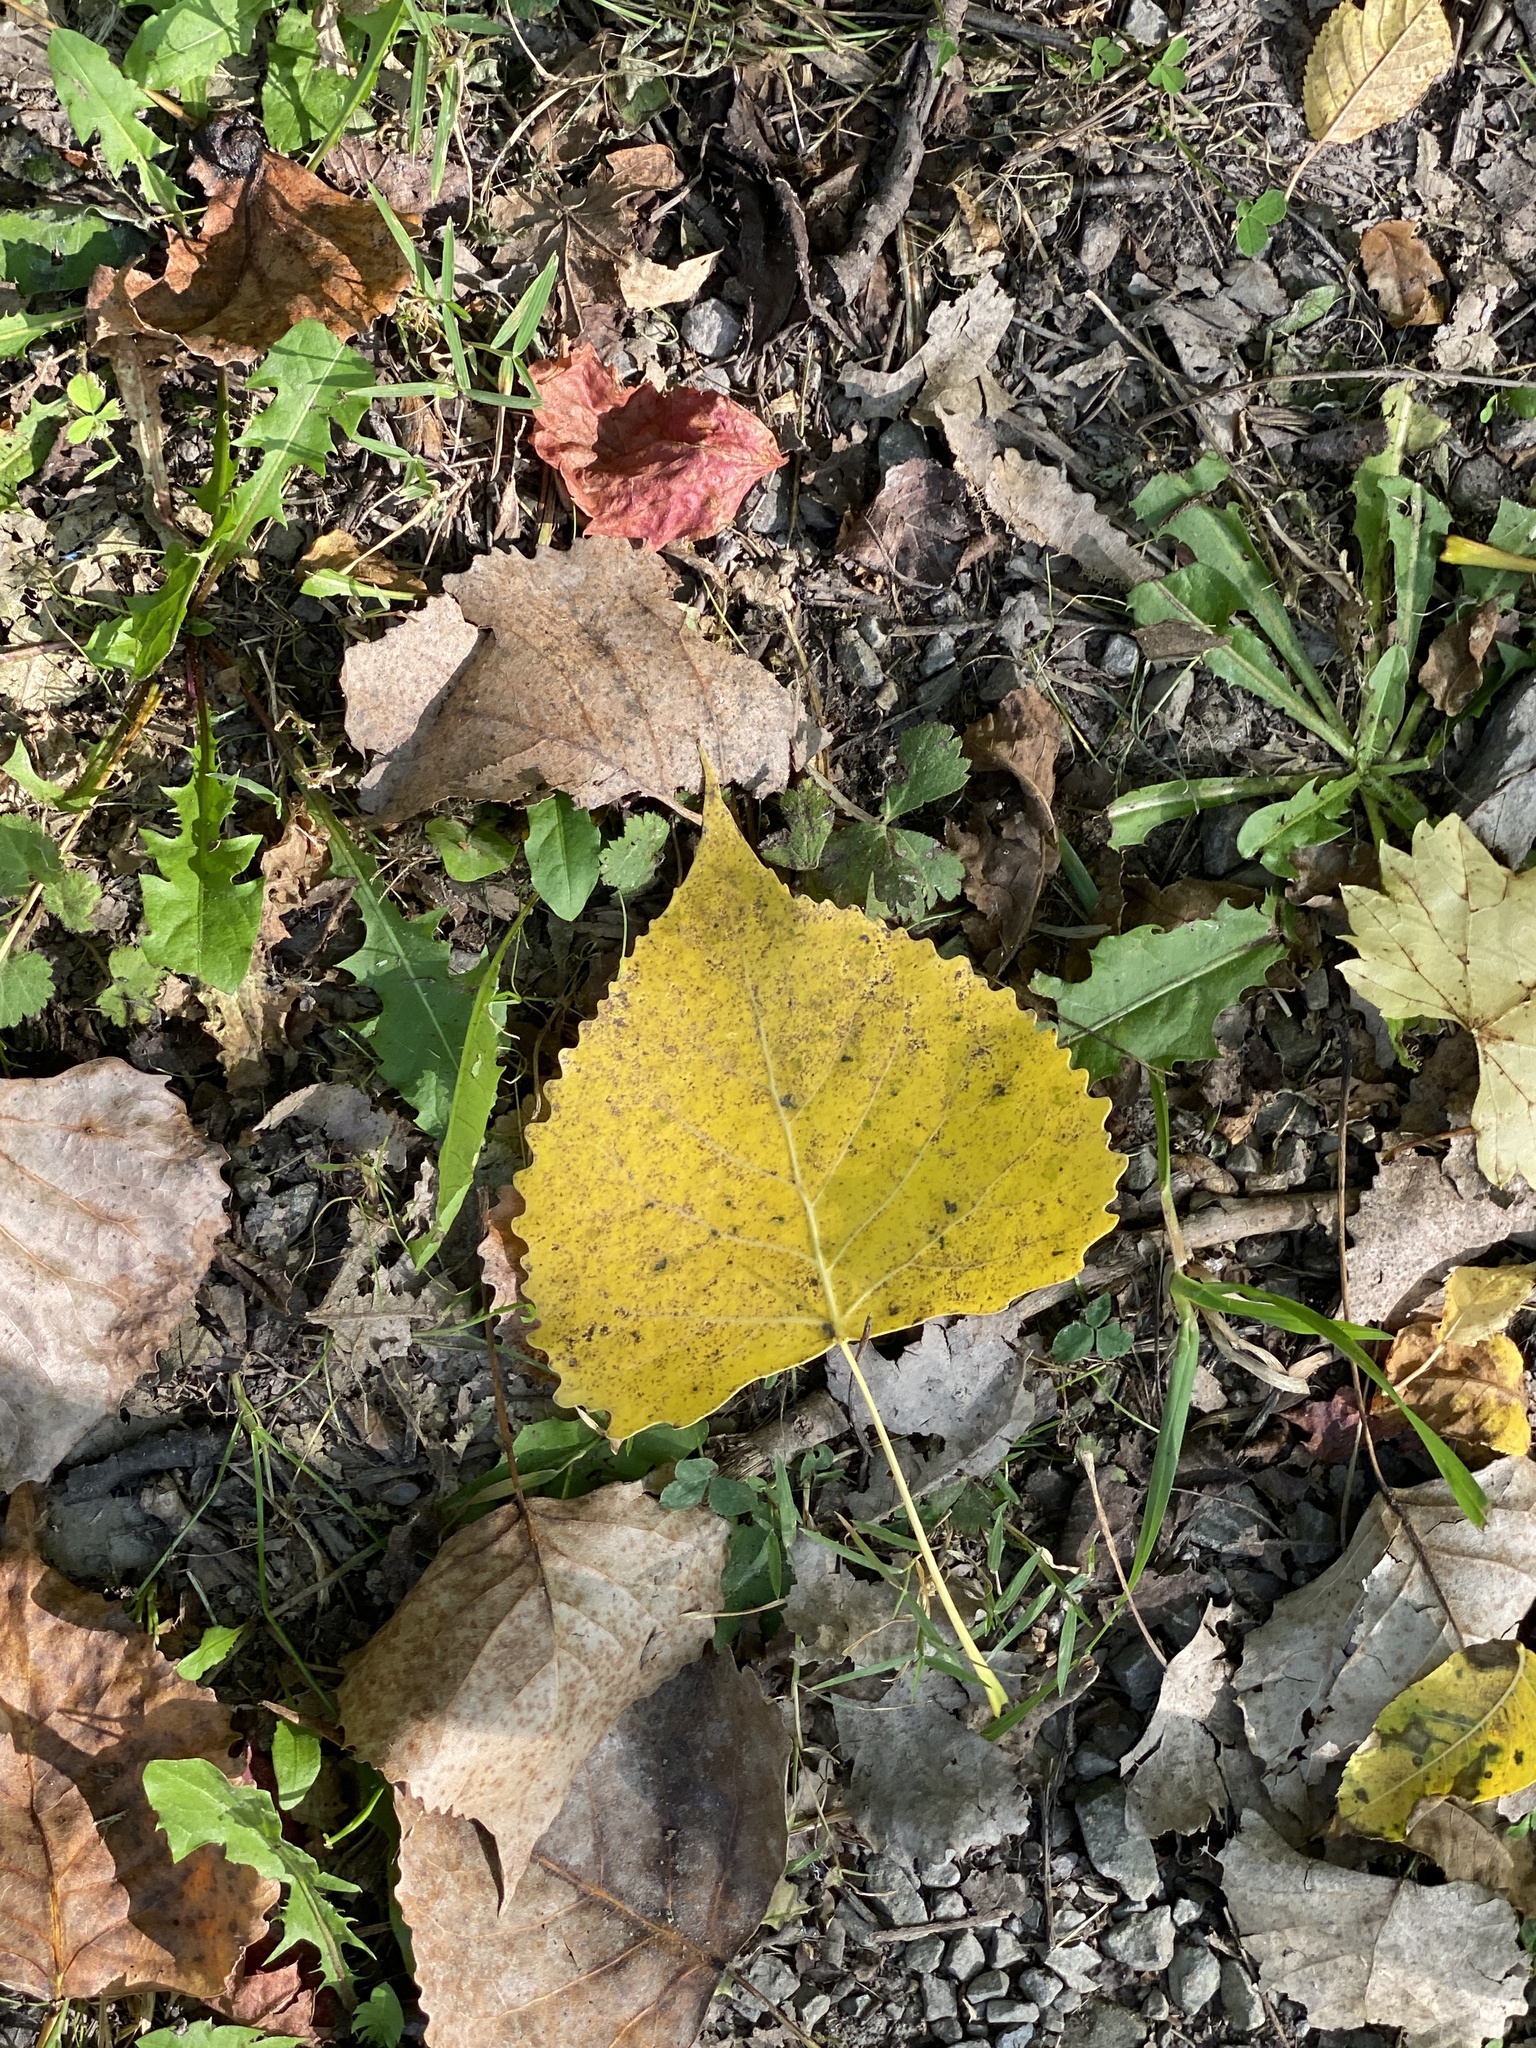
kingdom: Plantae
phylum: Tracheophyta
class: Magnoliopsida
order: Malpighiales
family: Salicaceae
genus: Populus
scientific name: Populus deltoides
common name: Eastern cottonwood
